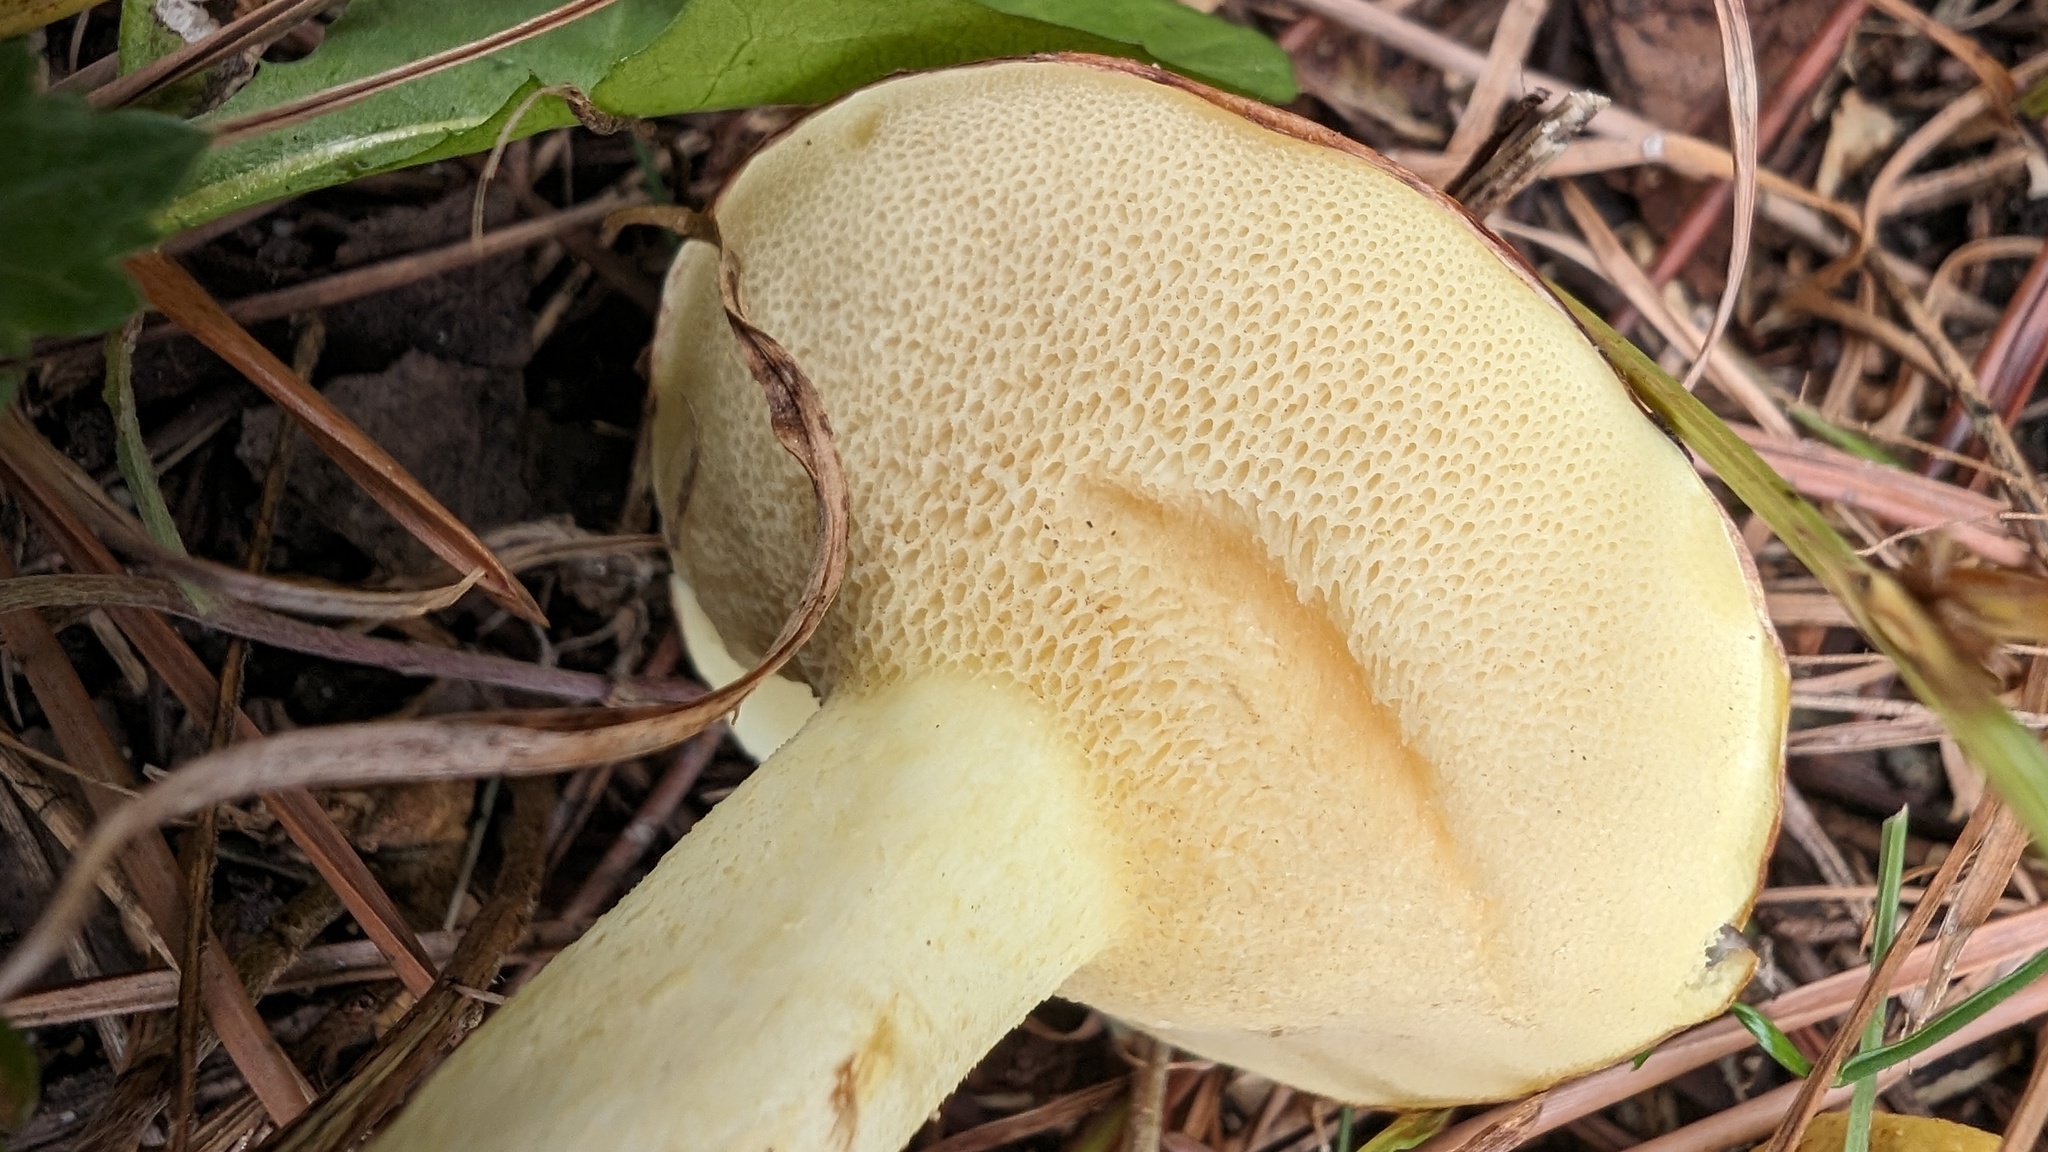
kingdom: Fungi
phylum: Basidiomycota
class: Agaricomycetes
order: Boletales
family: Suillaceae
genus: Suillus
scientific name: Suillus granulatus
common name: Weeping bolete
